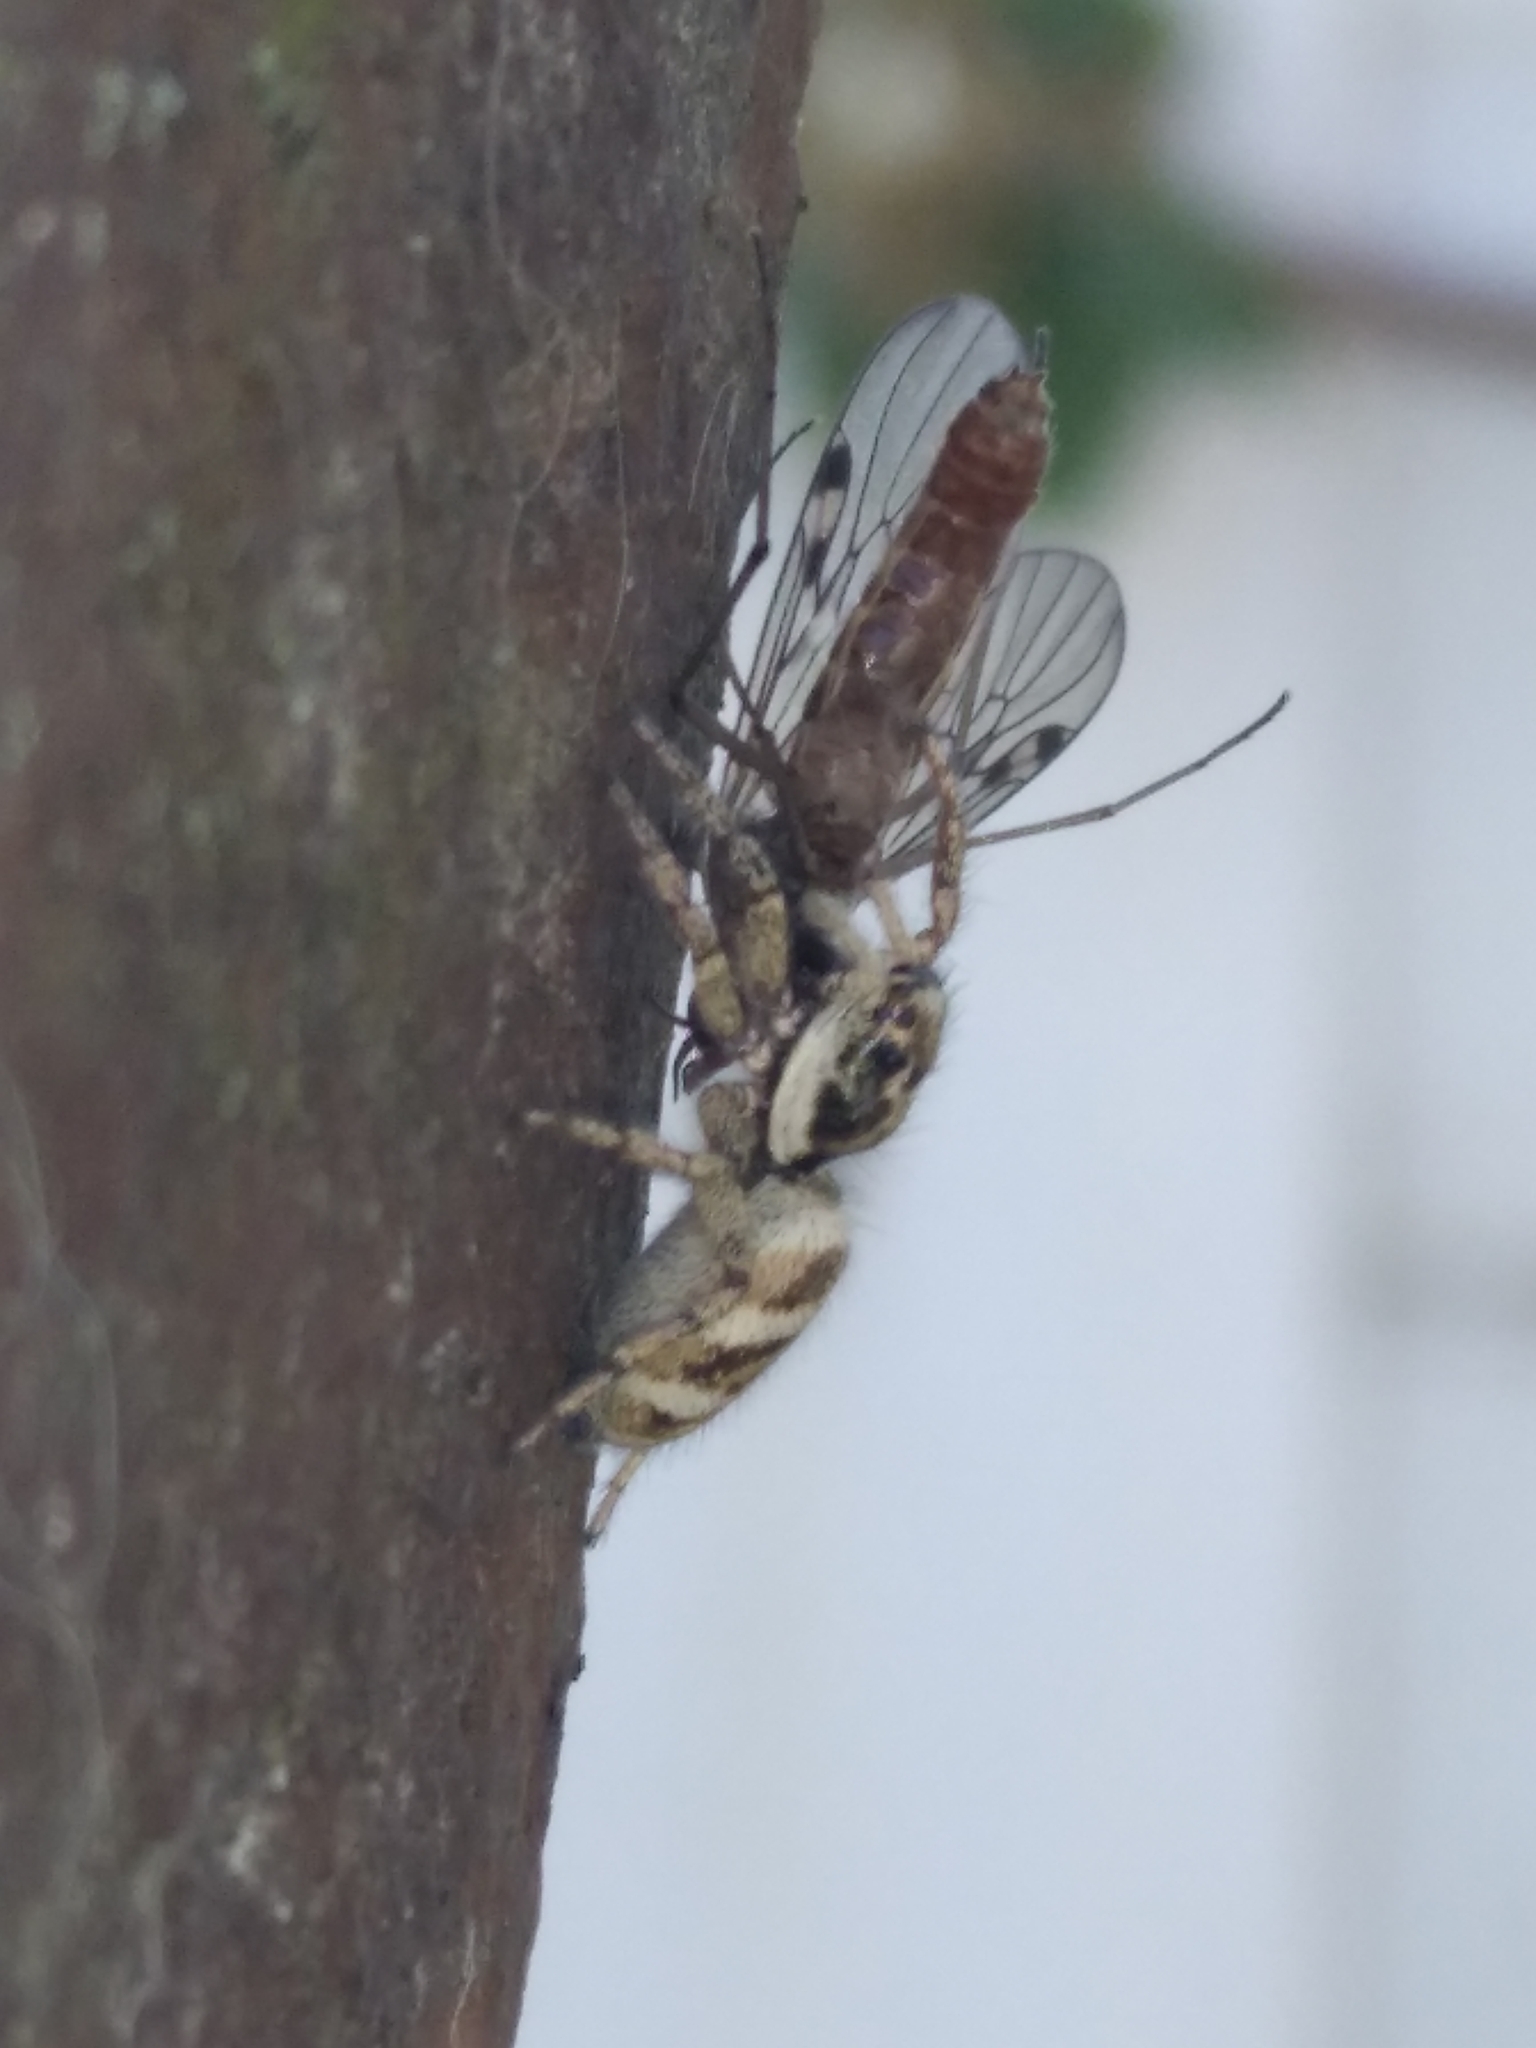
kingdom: Animalia
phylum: Arthropoda
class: Arachnida
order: Araneae
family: Salticidae
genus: Salticus
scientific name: Salticus scenicus
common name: Zebra jumper
